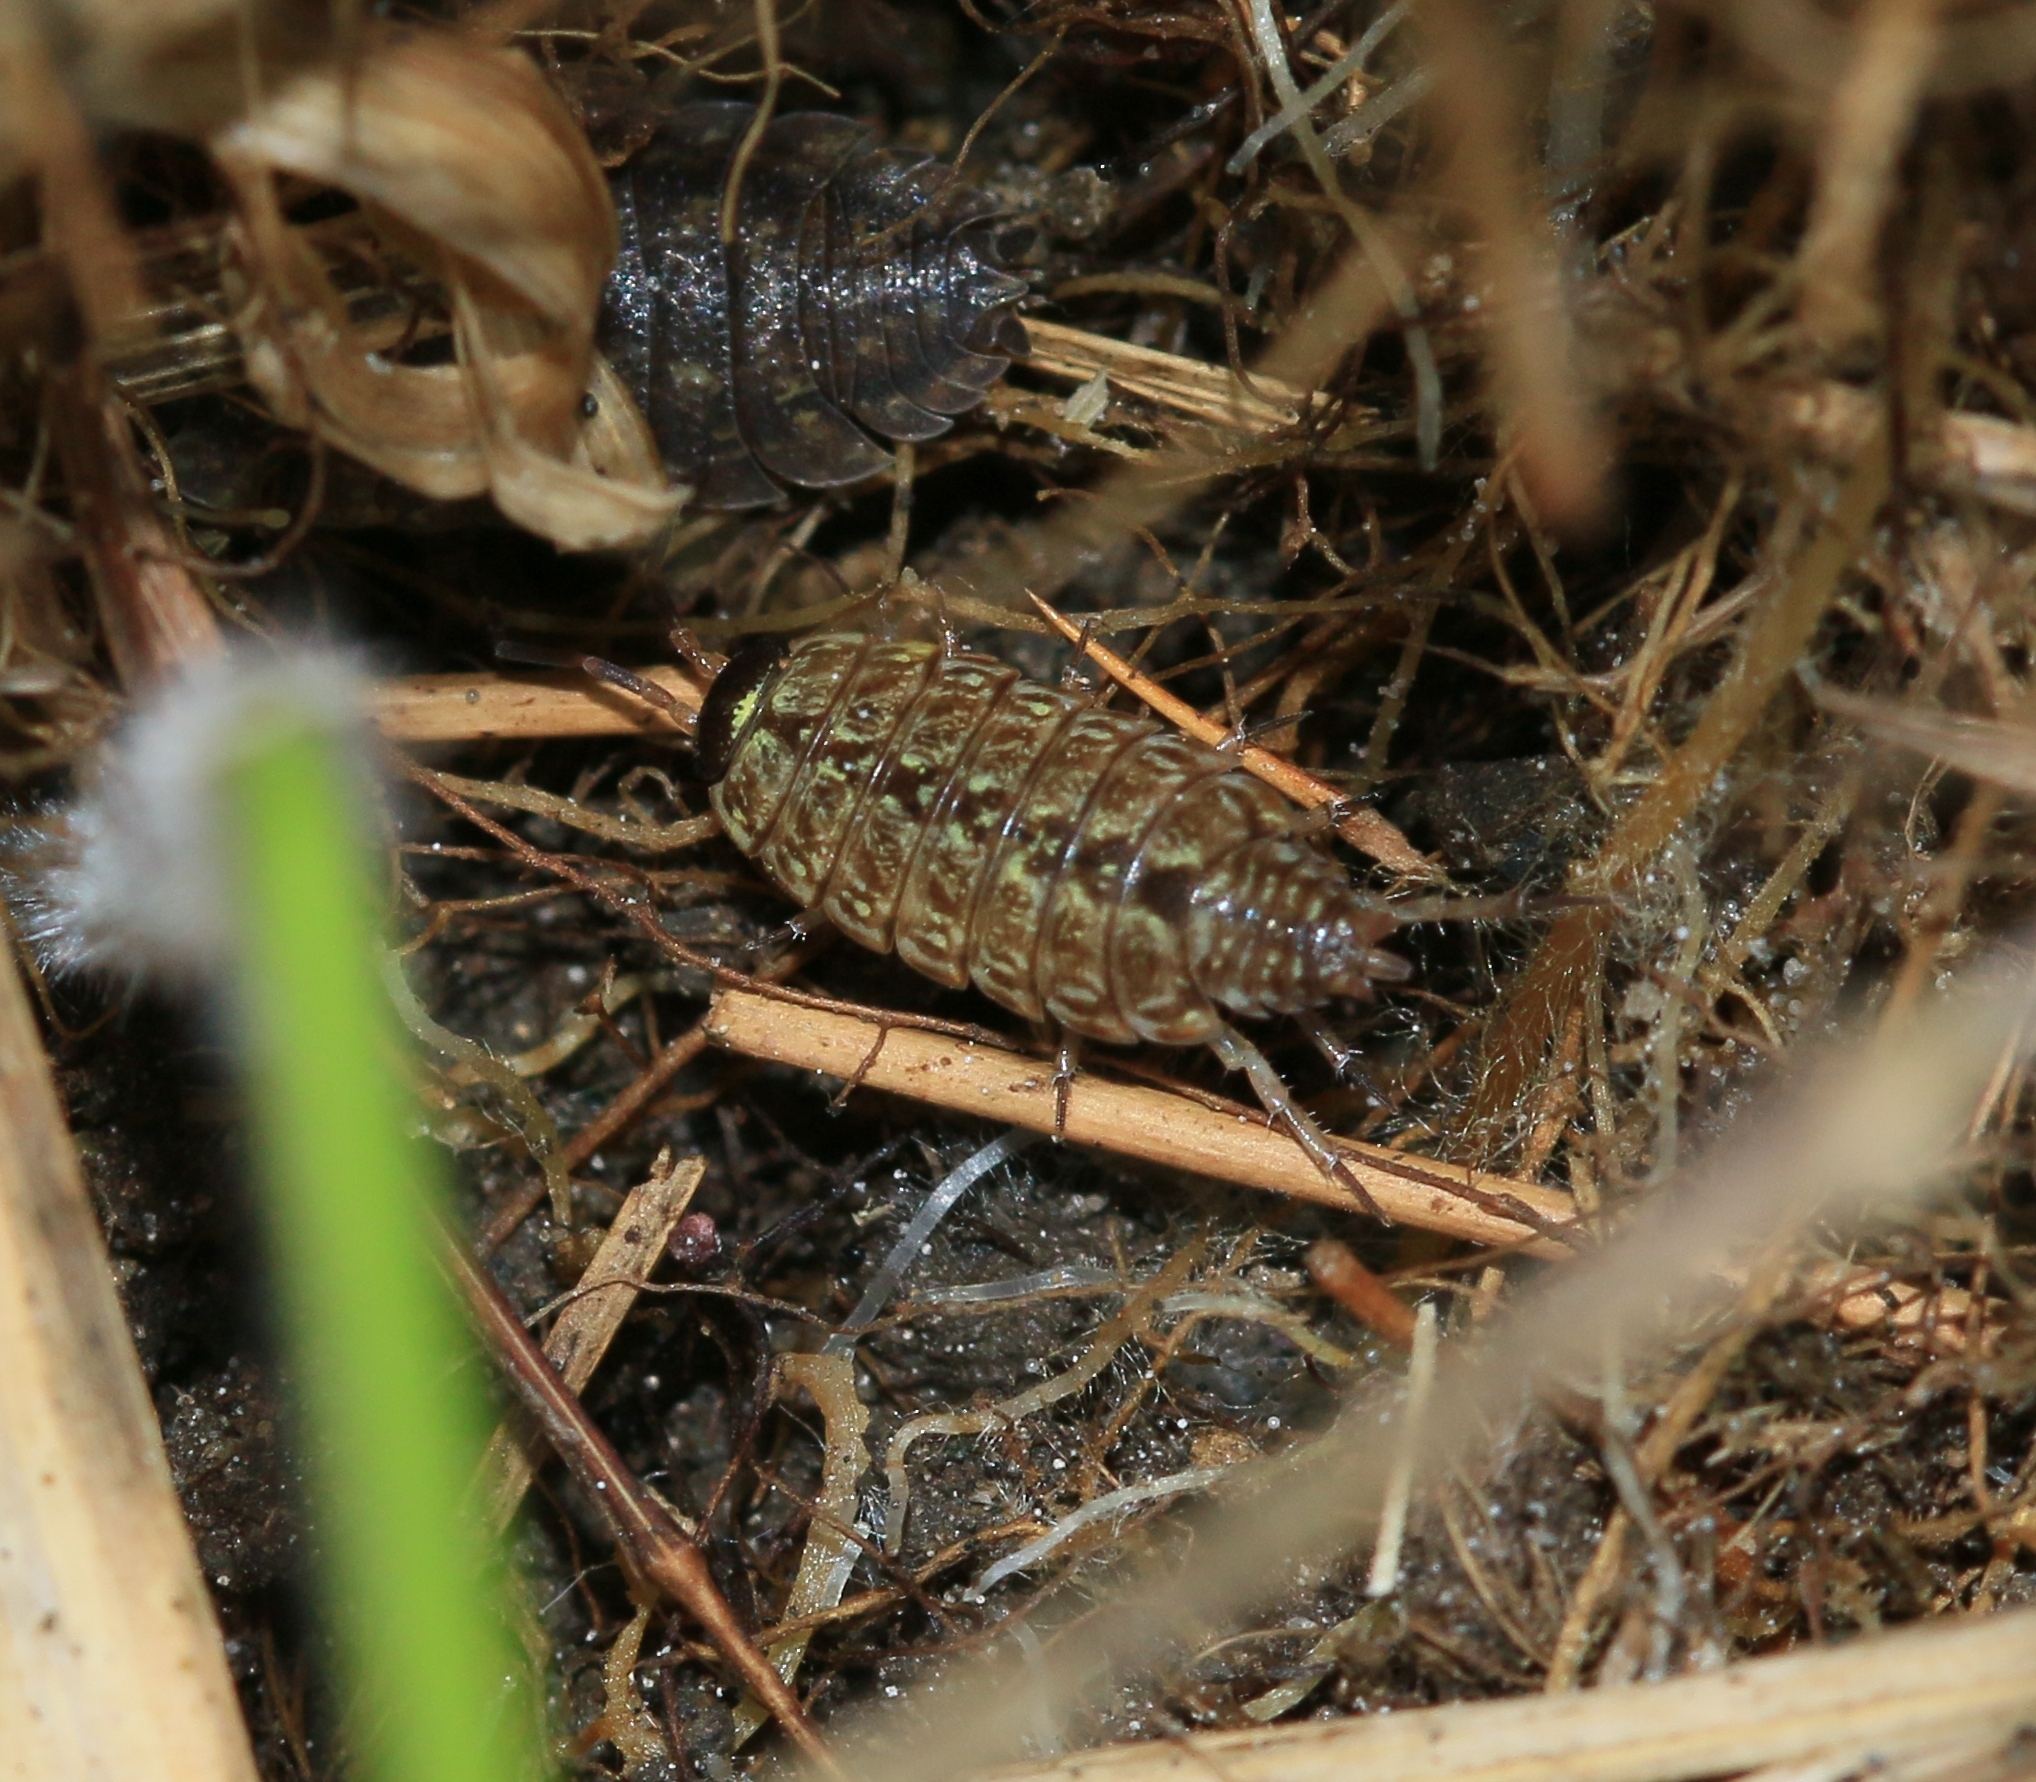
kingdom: Animalia
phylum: Arthropoda
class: Malacostraca
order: Isopoda
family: Philosciidae
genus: Philoscia
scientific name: Philoscia muscorum
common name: Common striped woodlouse
